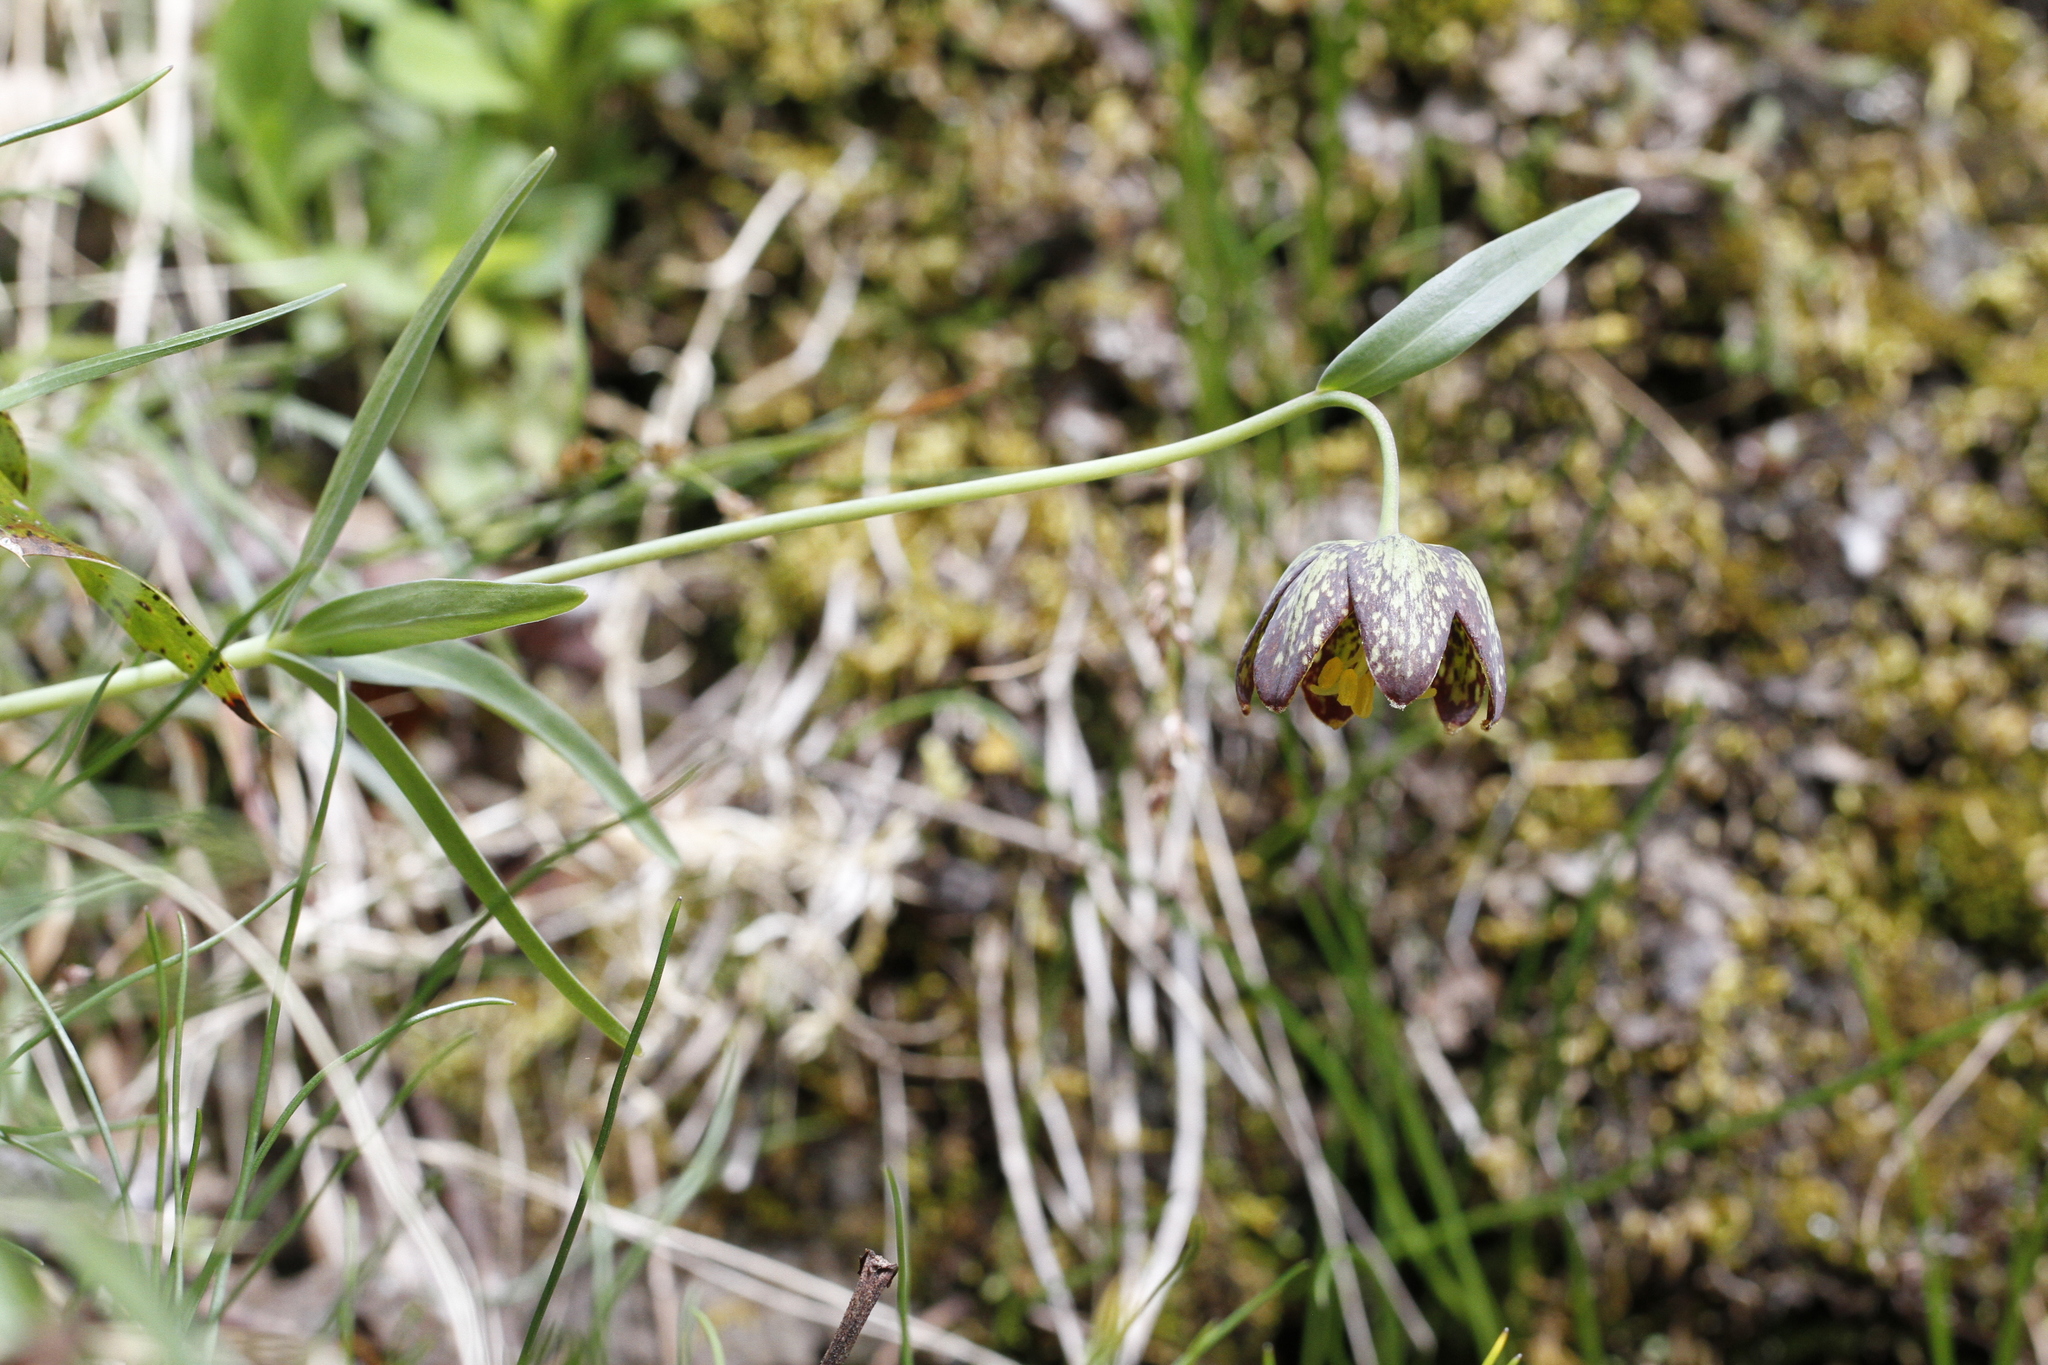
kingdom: Plantae
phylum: Tracheophyta
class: Liliopsida
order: Liliales
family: Liliaceae
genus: Fritillaria
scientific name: Fritillaria affinis
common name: Ojai fritillary
